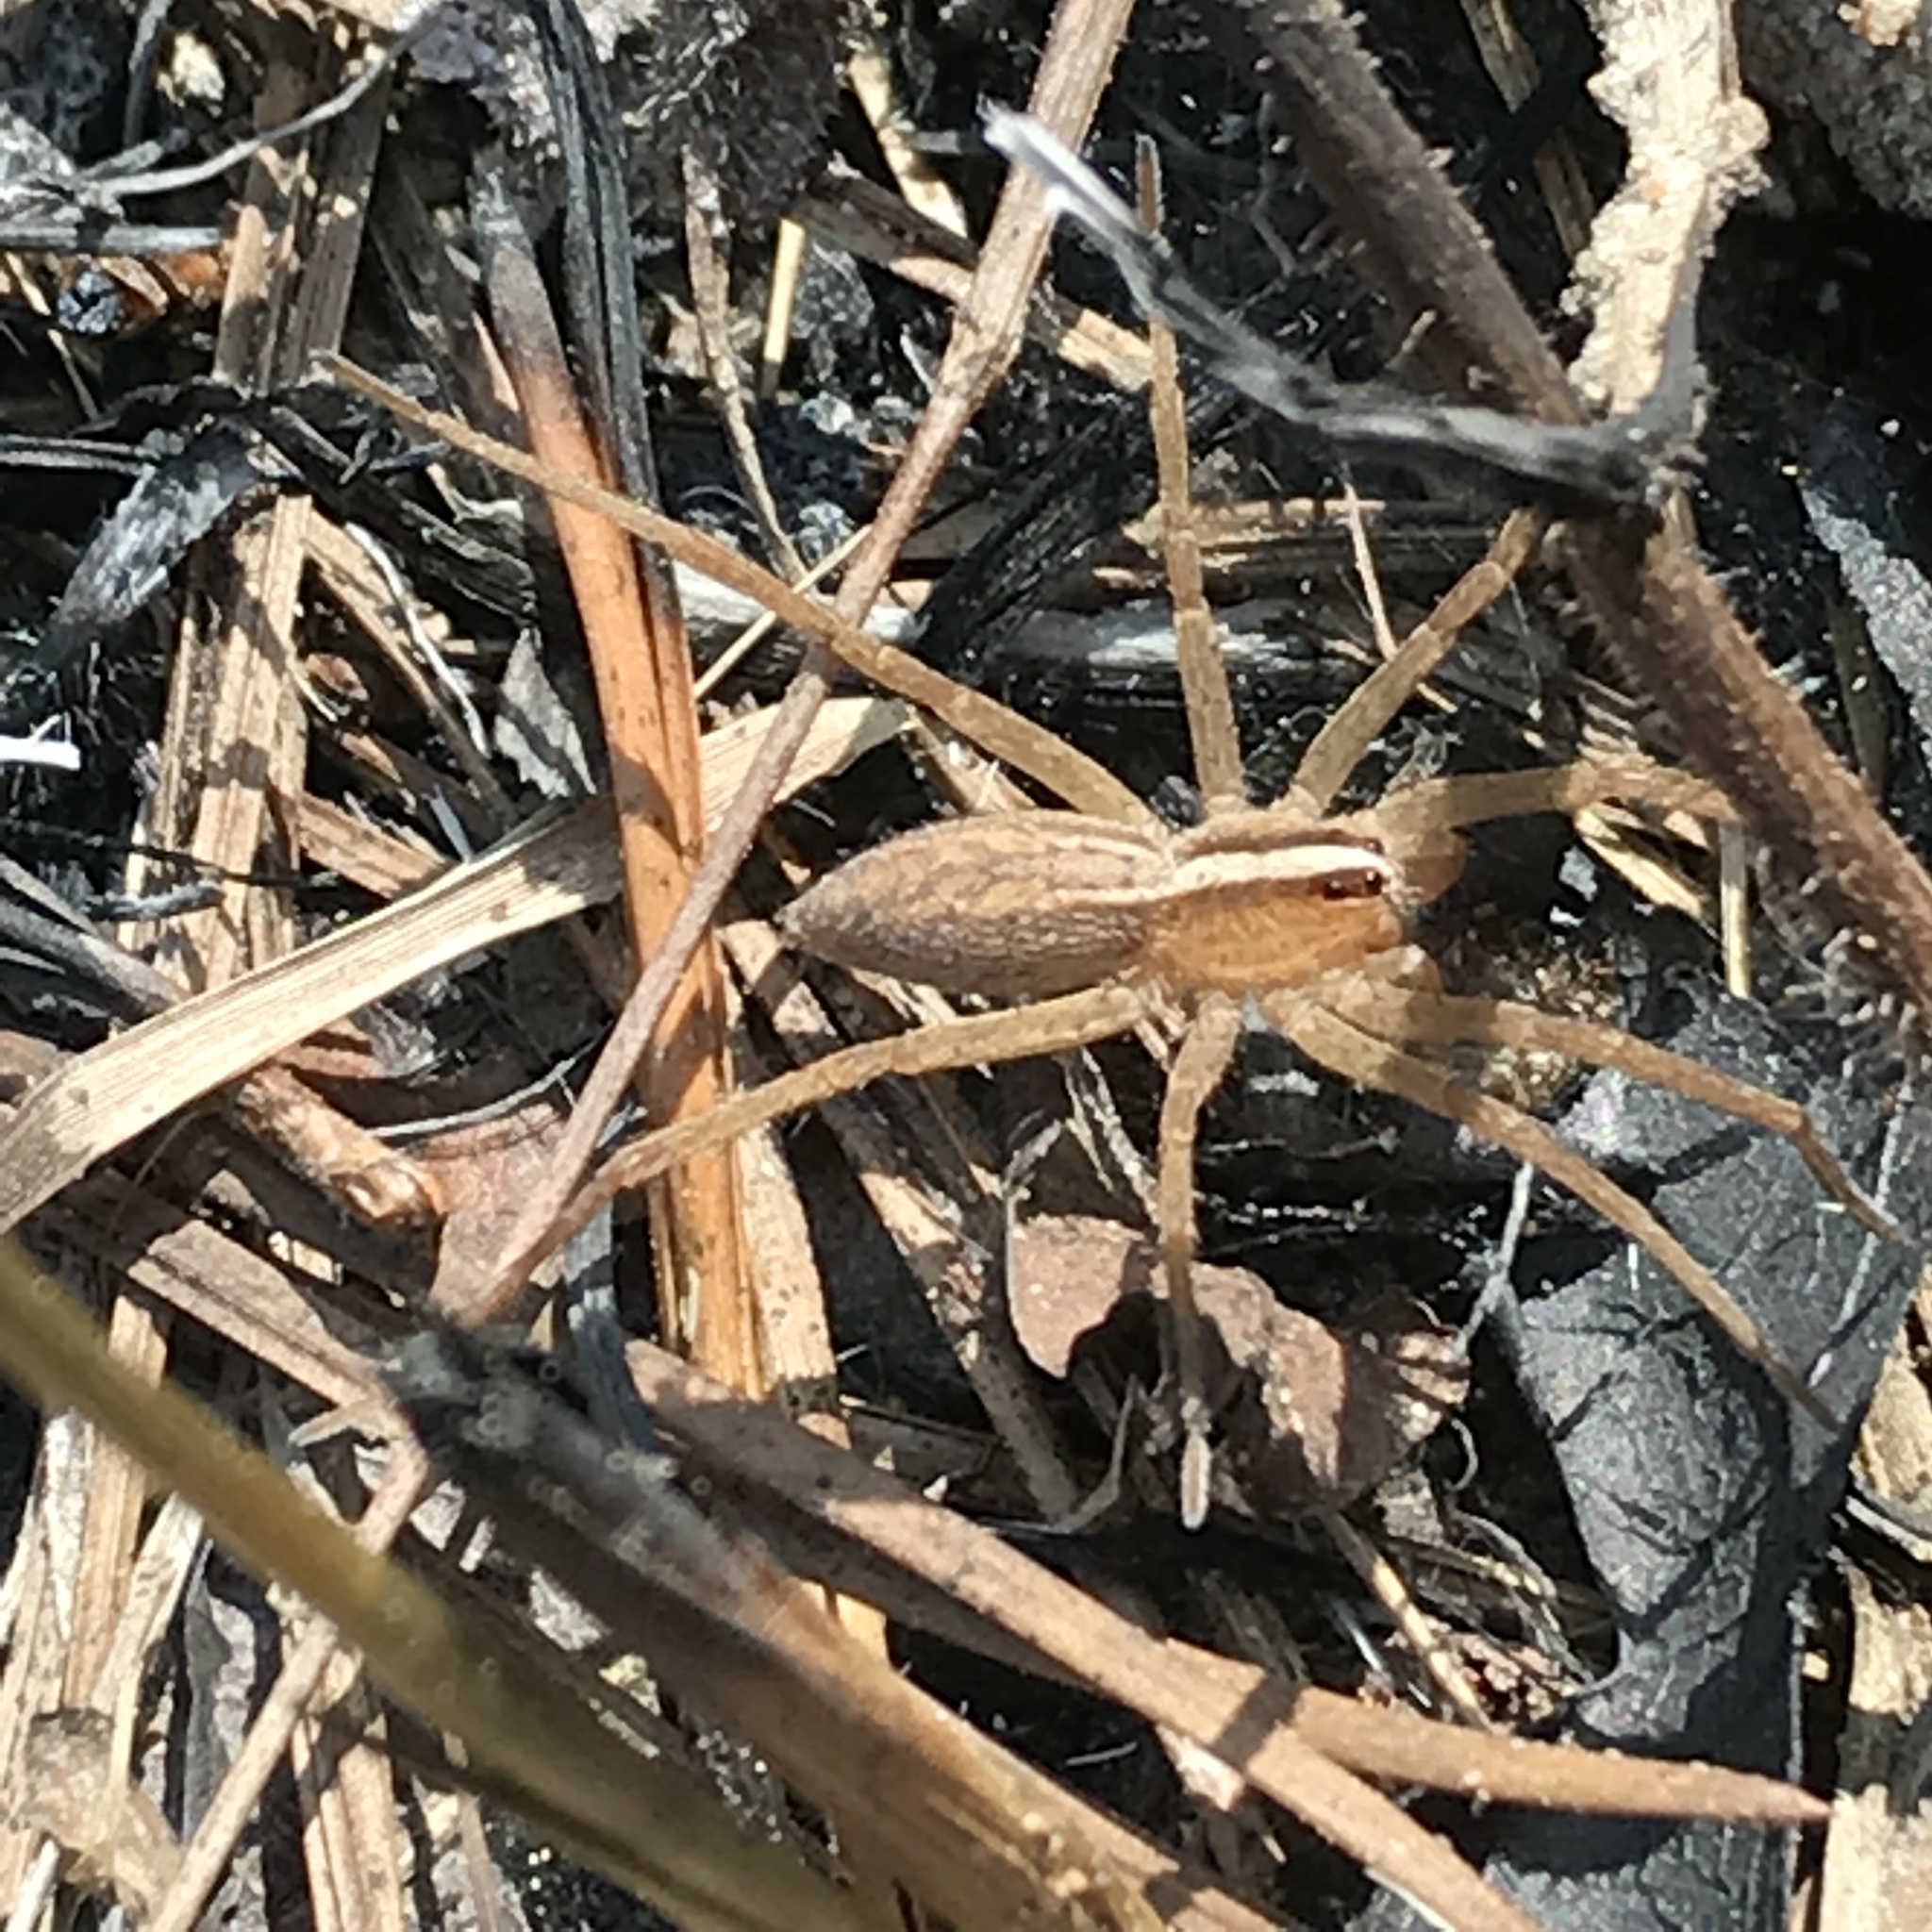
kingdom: Animalia
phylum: Arthropoda
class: Arachnida
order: Araneae
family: Lycosidae
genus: Rabidosa
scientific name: Rabidosa hentzi
